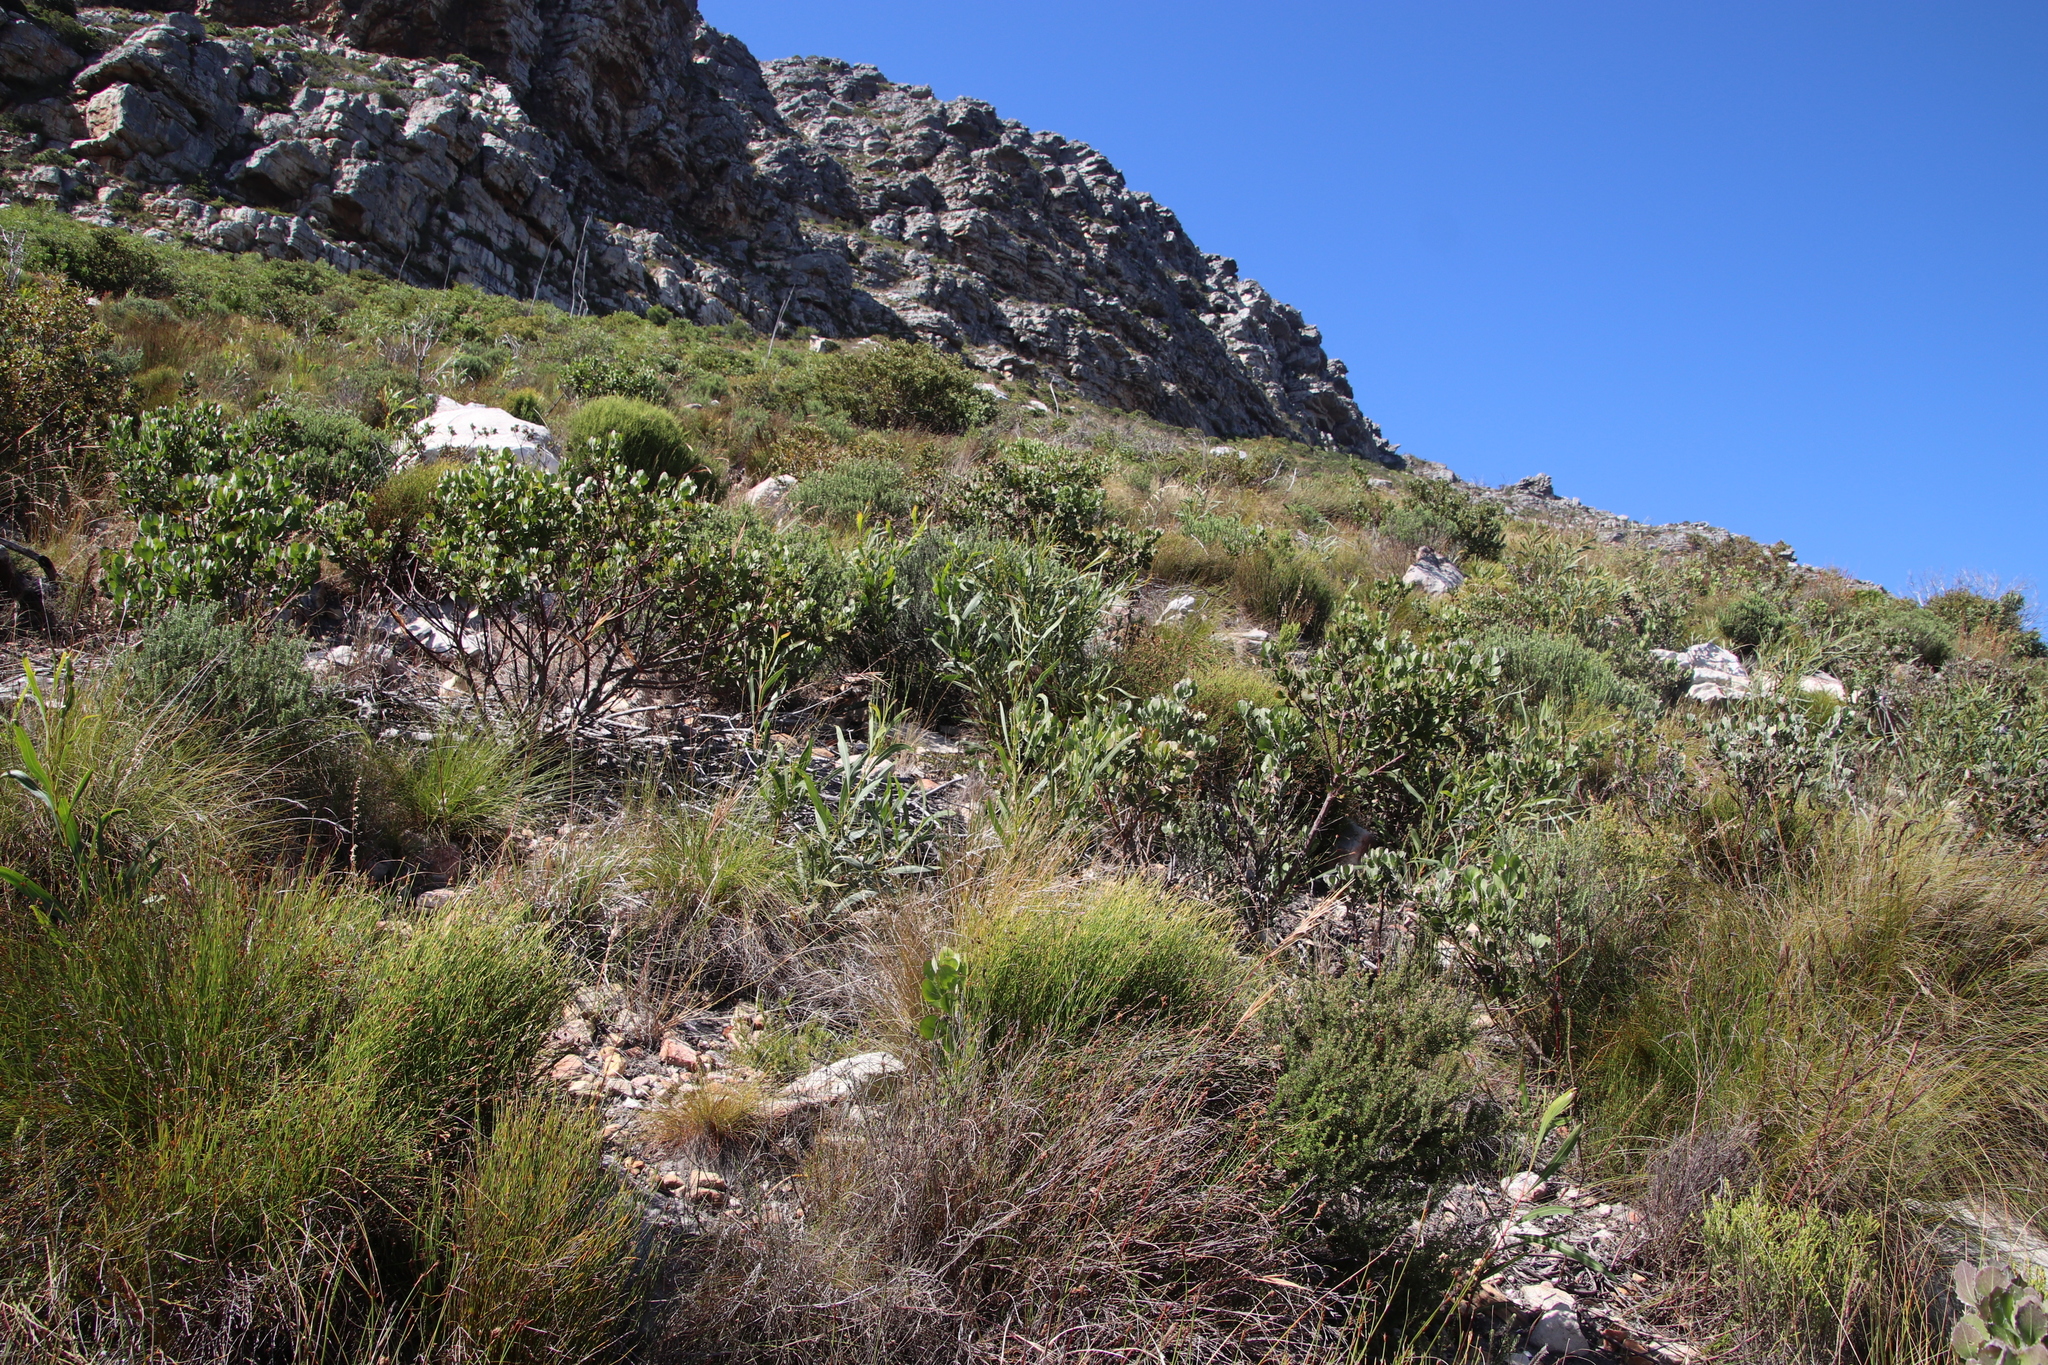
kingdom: Plantae
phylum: Tracheophyta
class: Magnoliopsida
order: Fabales
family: Fabaceae
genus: Acacia
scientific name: Acacia saligna
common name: Orange wattle
